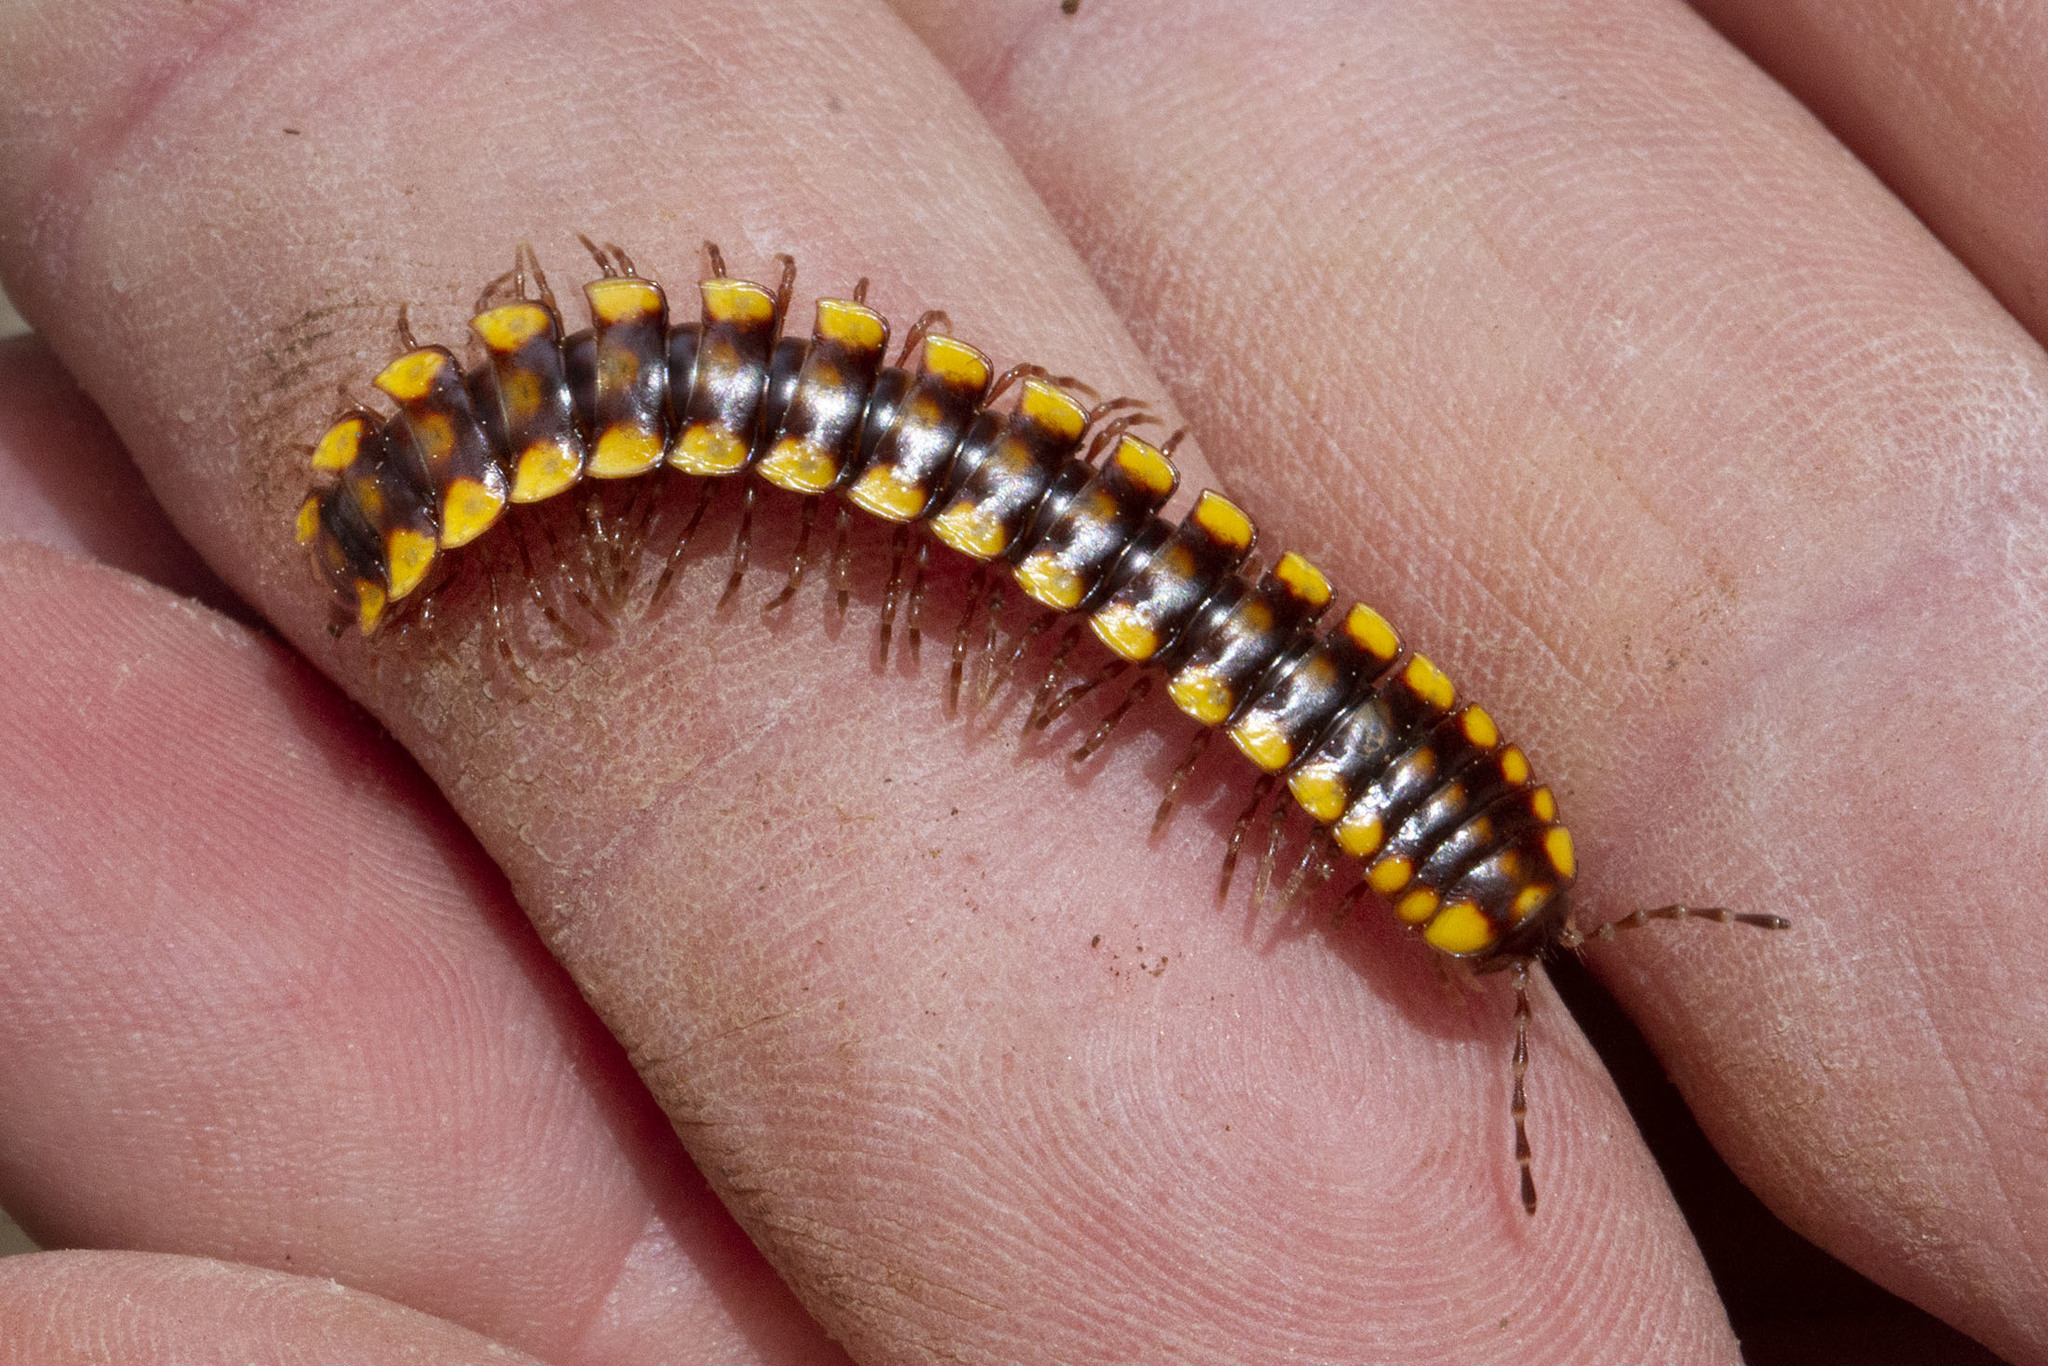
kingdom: Animalia
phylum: Arthropoda
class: Diplopoda
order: Polydesmida
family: Xystodesmidae
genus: Melaphe
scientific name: Melaphe vestita
